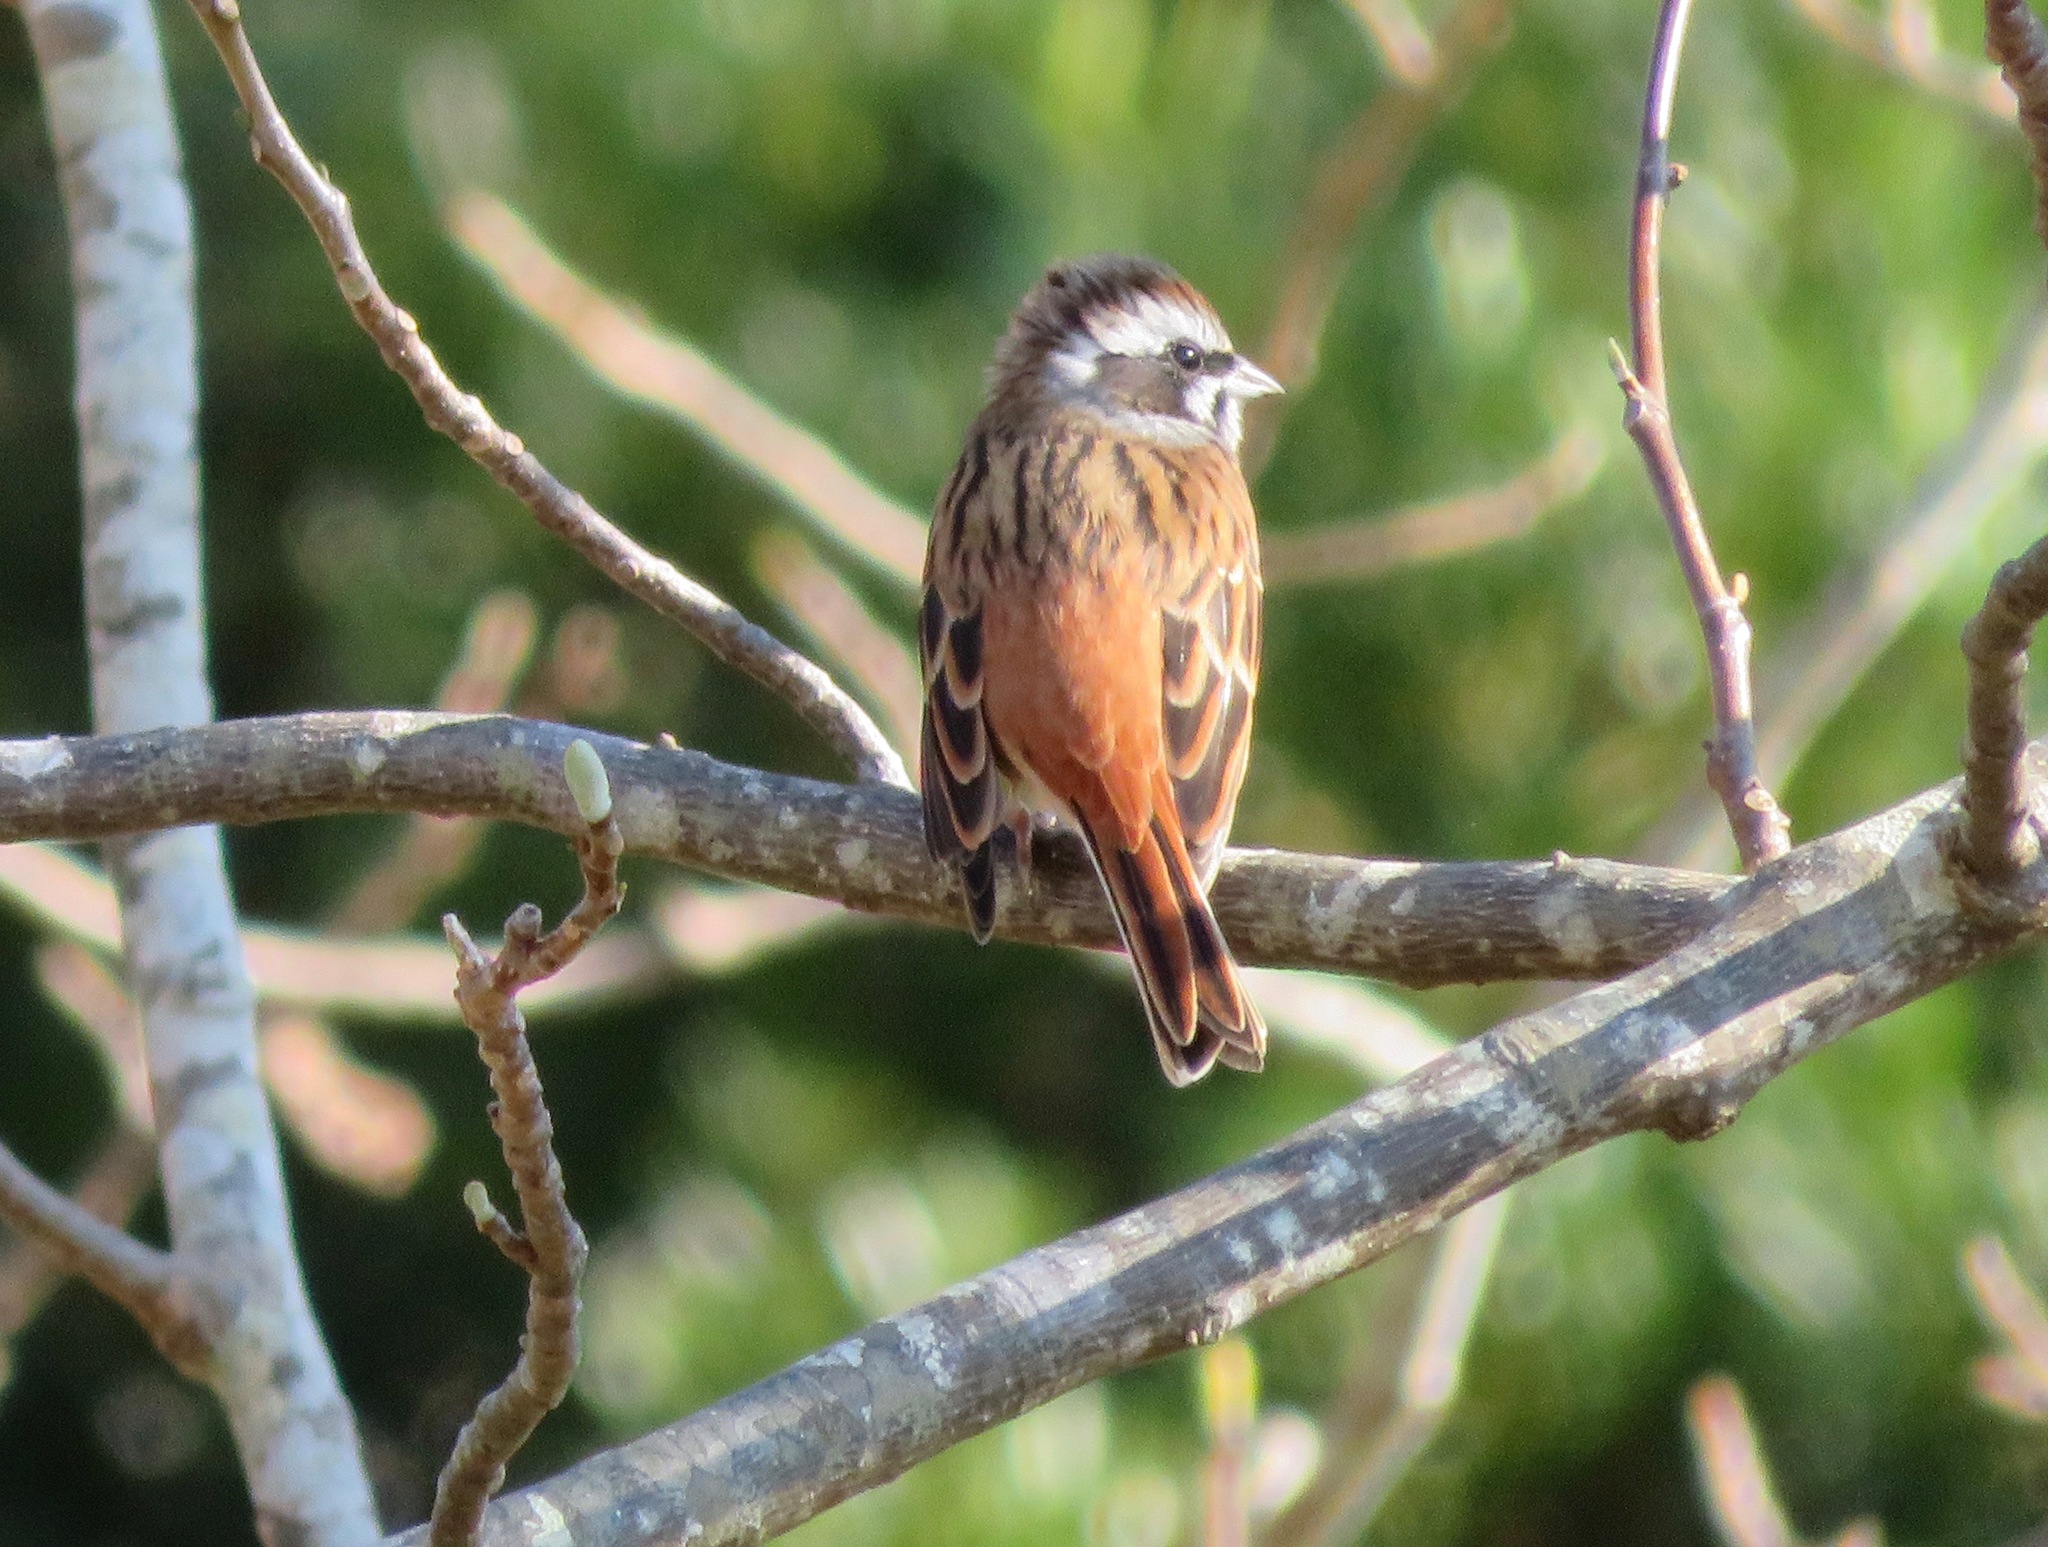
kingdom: Animalia
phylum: Chordata
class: Aves
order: Passeriformes
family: Emberizidae
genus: Emberiza
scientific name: Emberiza cioides
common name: Meadow bunting
